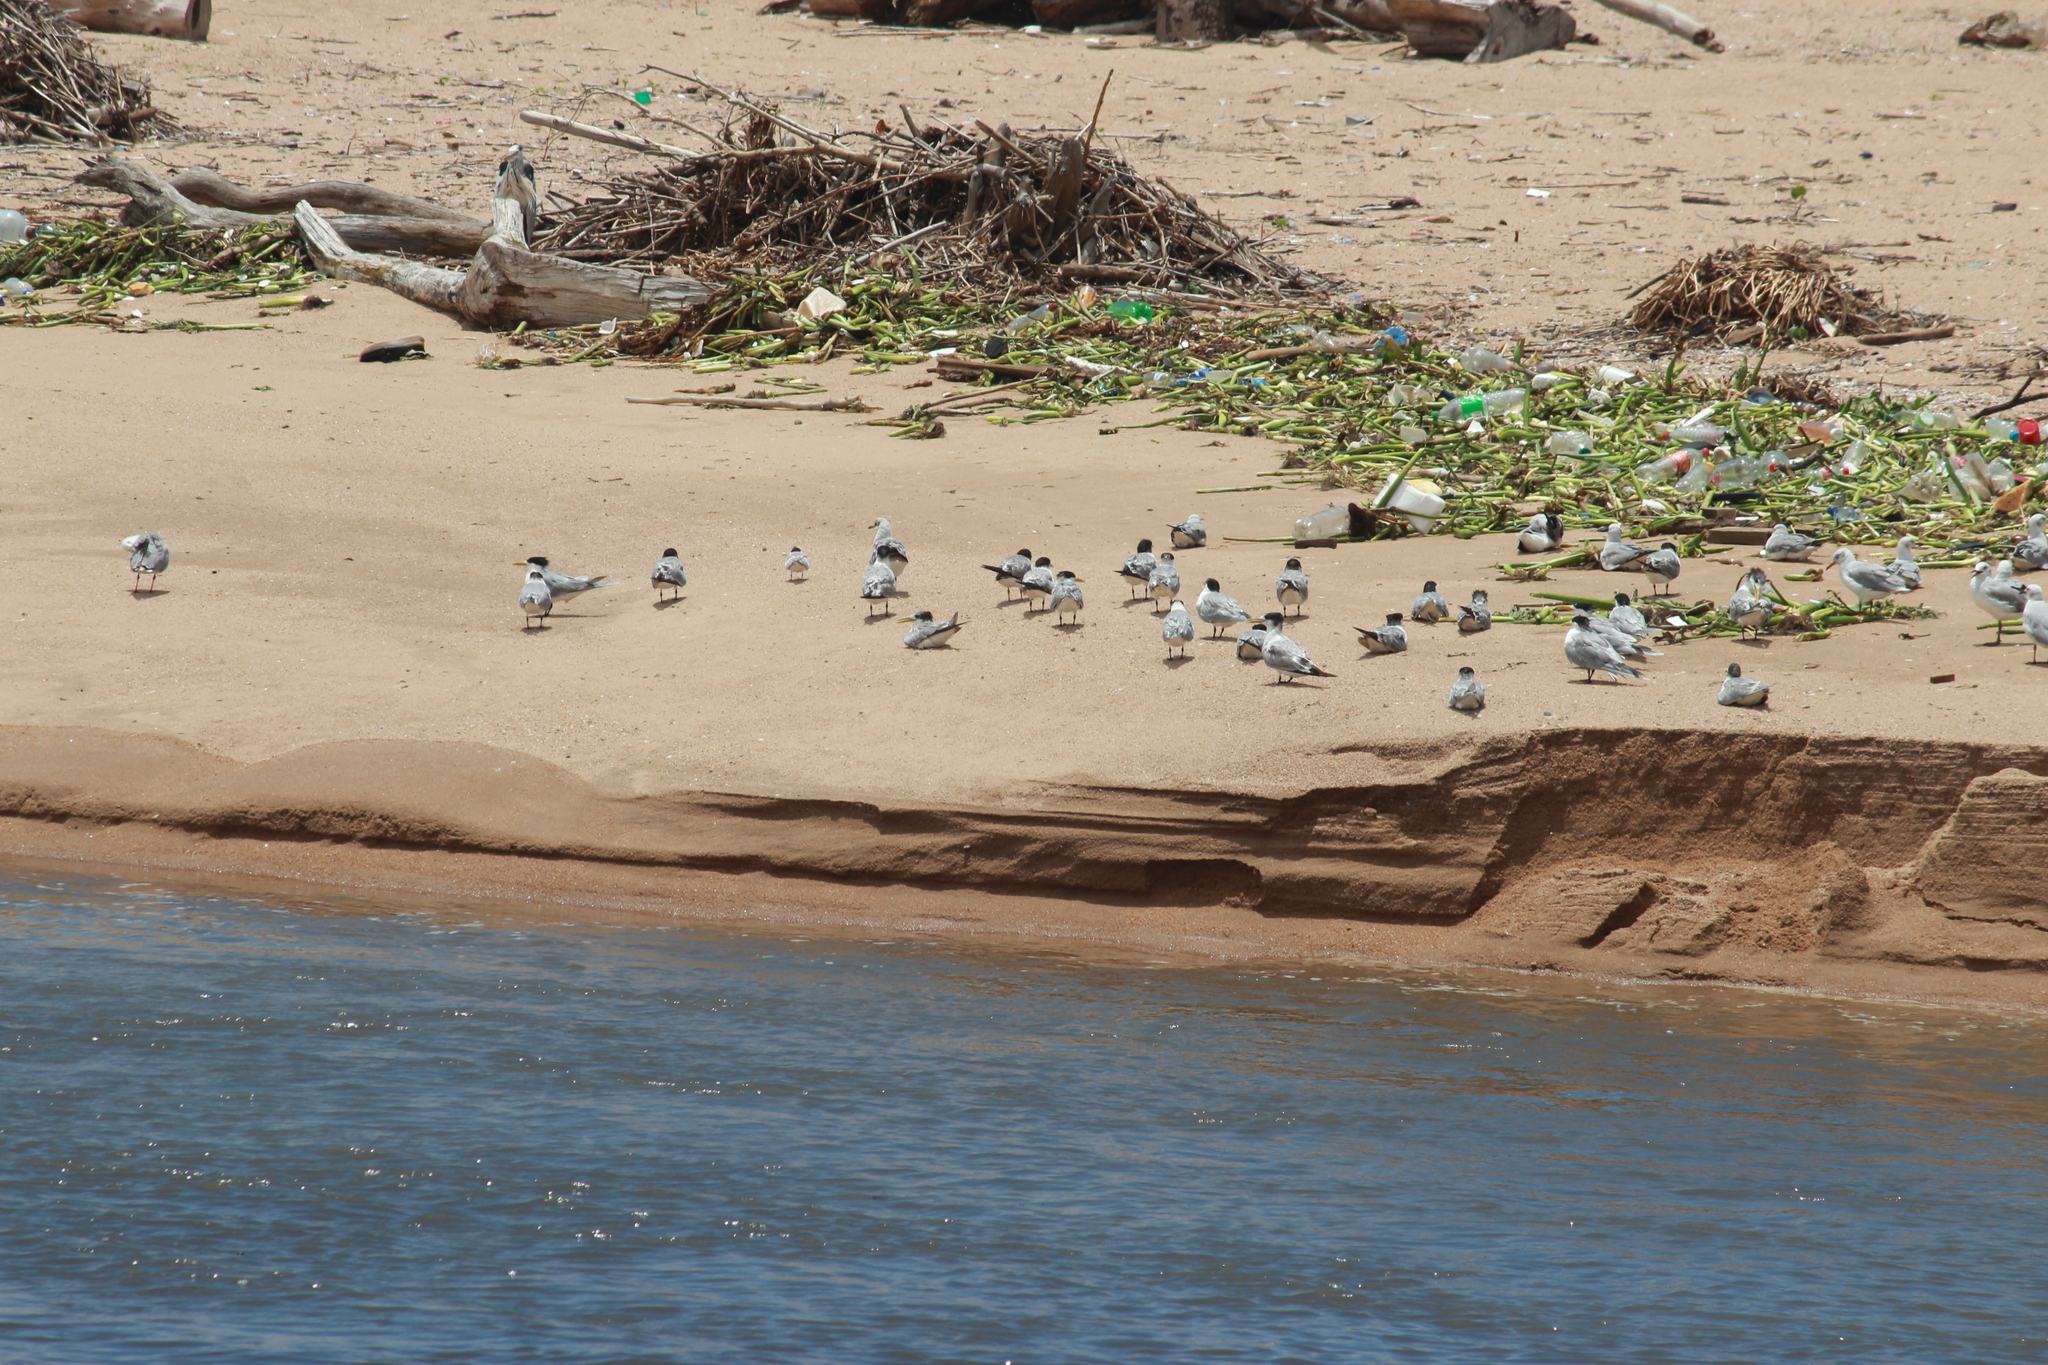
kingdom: Animalia
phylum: Chordata
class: Aves
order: Charadriiformes
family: Laridae
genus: Thalasseus
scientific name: Thalasseus bergii
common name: Greater crested tern
